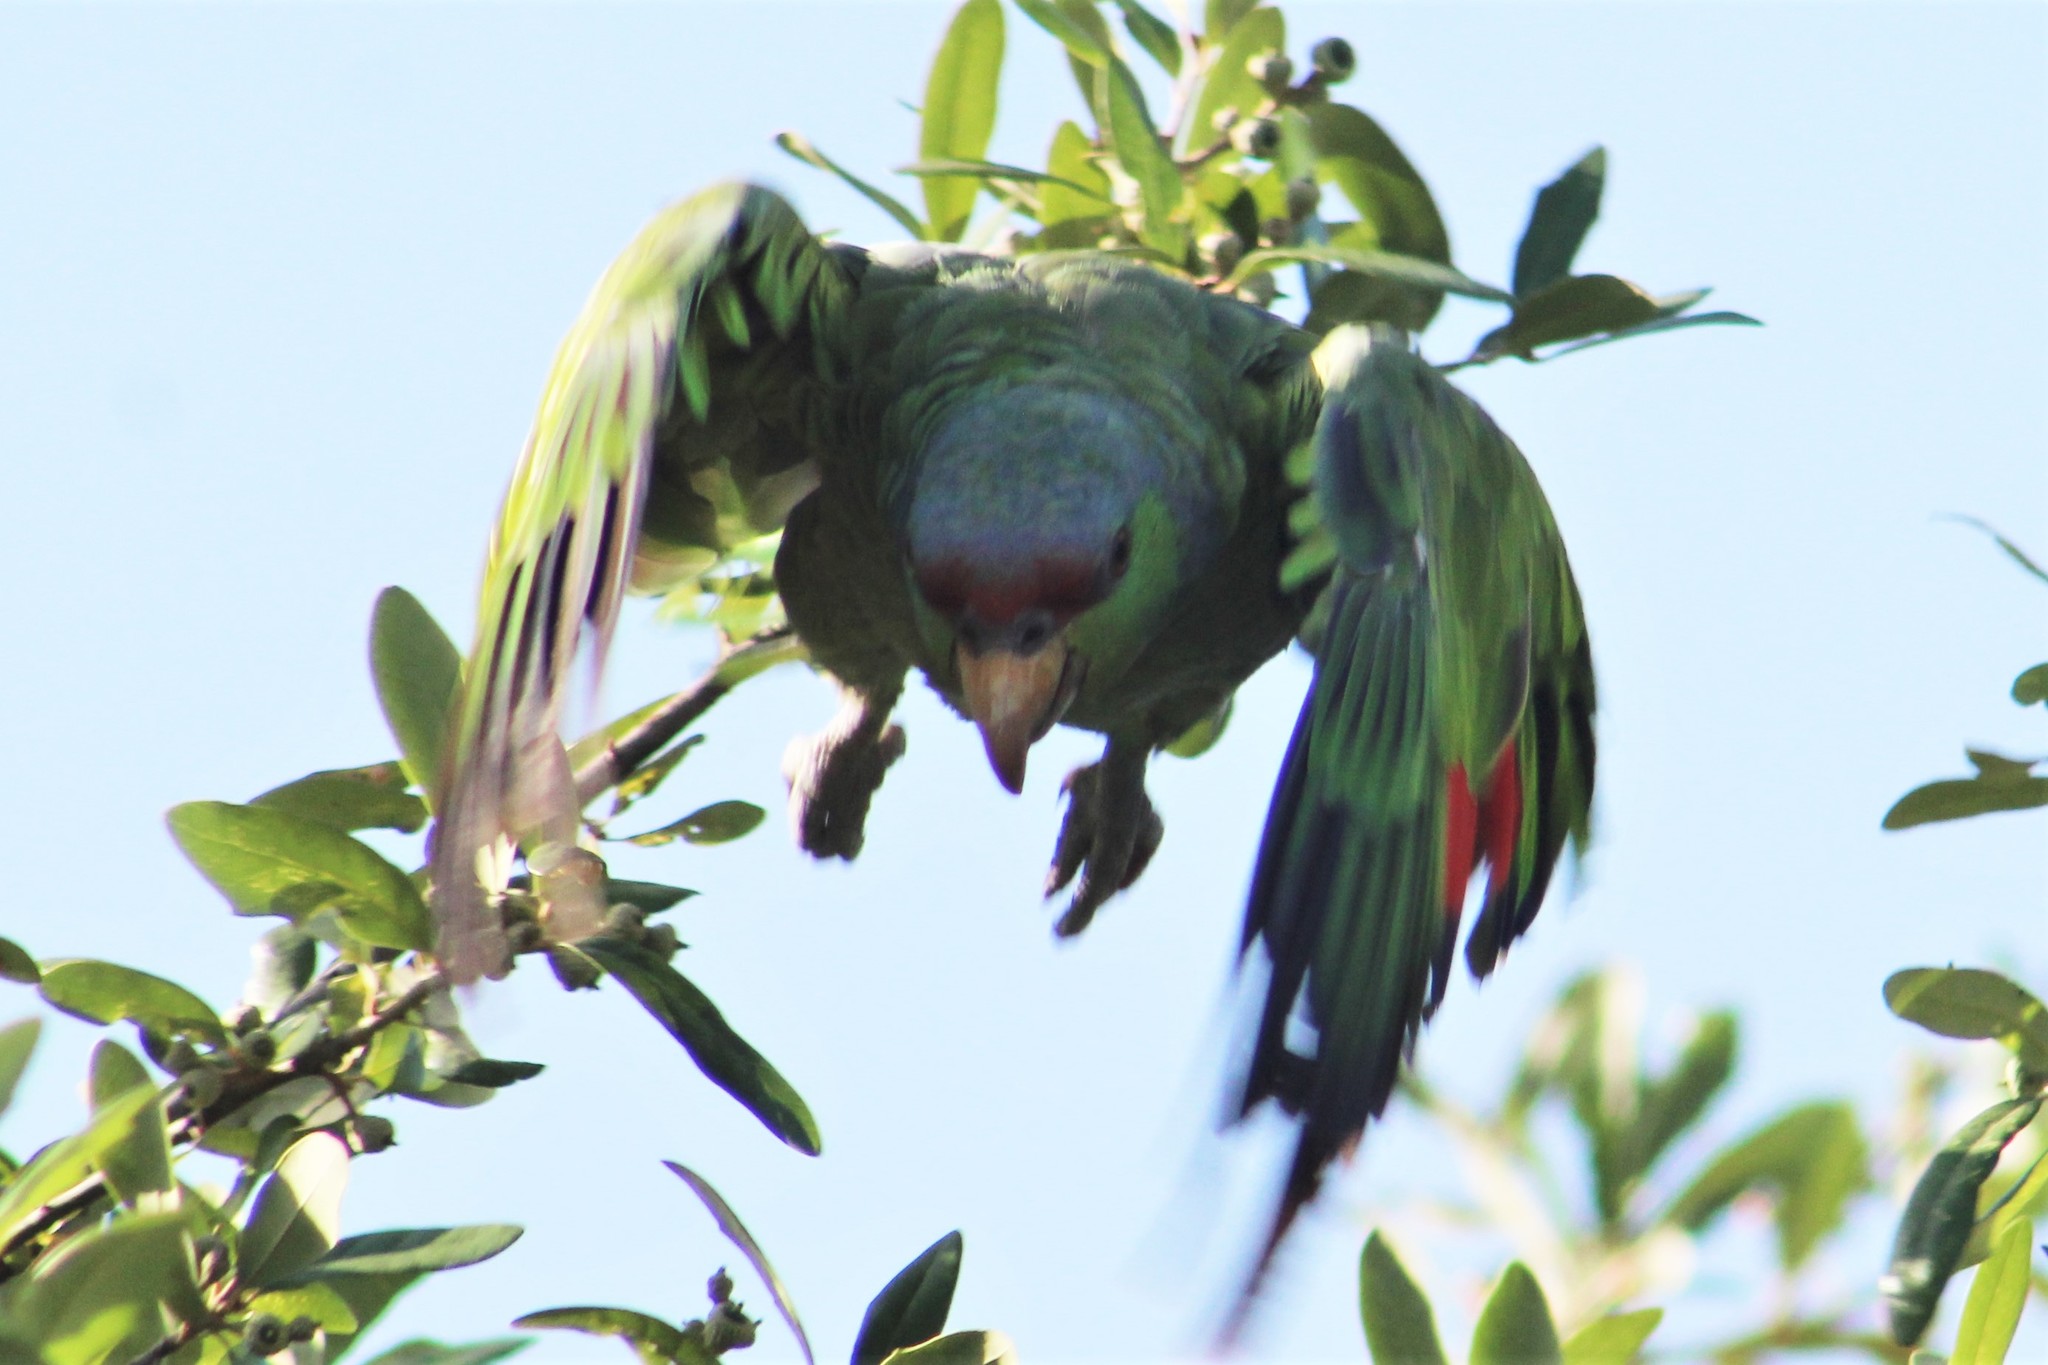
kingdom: Animalia
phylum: Chordata
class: Aves
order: Psittaciformes
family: Psittacidae
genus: Amazona
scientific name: Amazona finschi
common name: Lilac-crowned amazon
